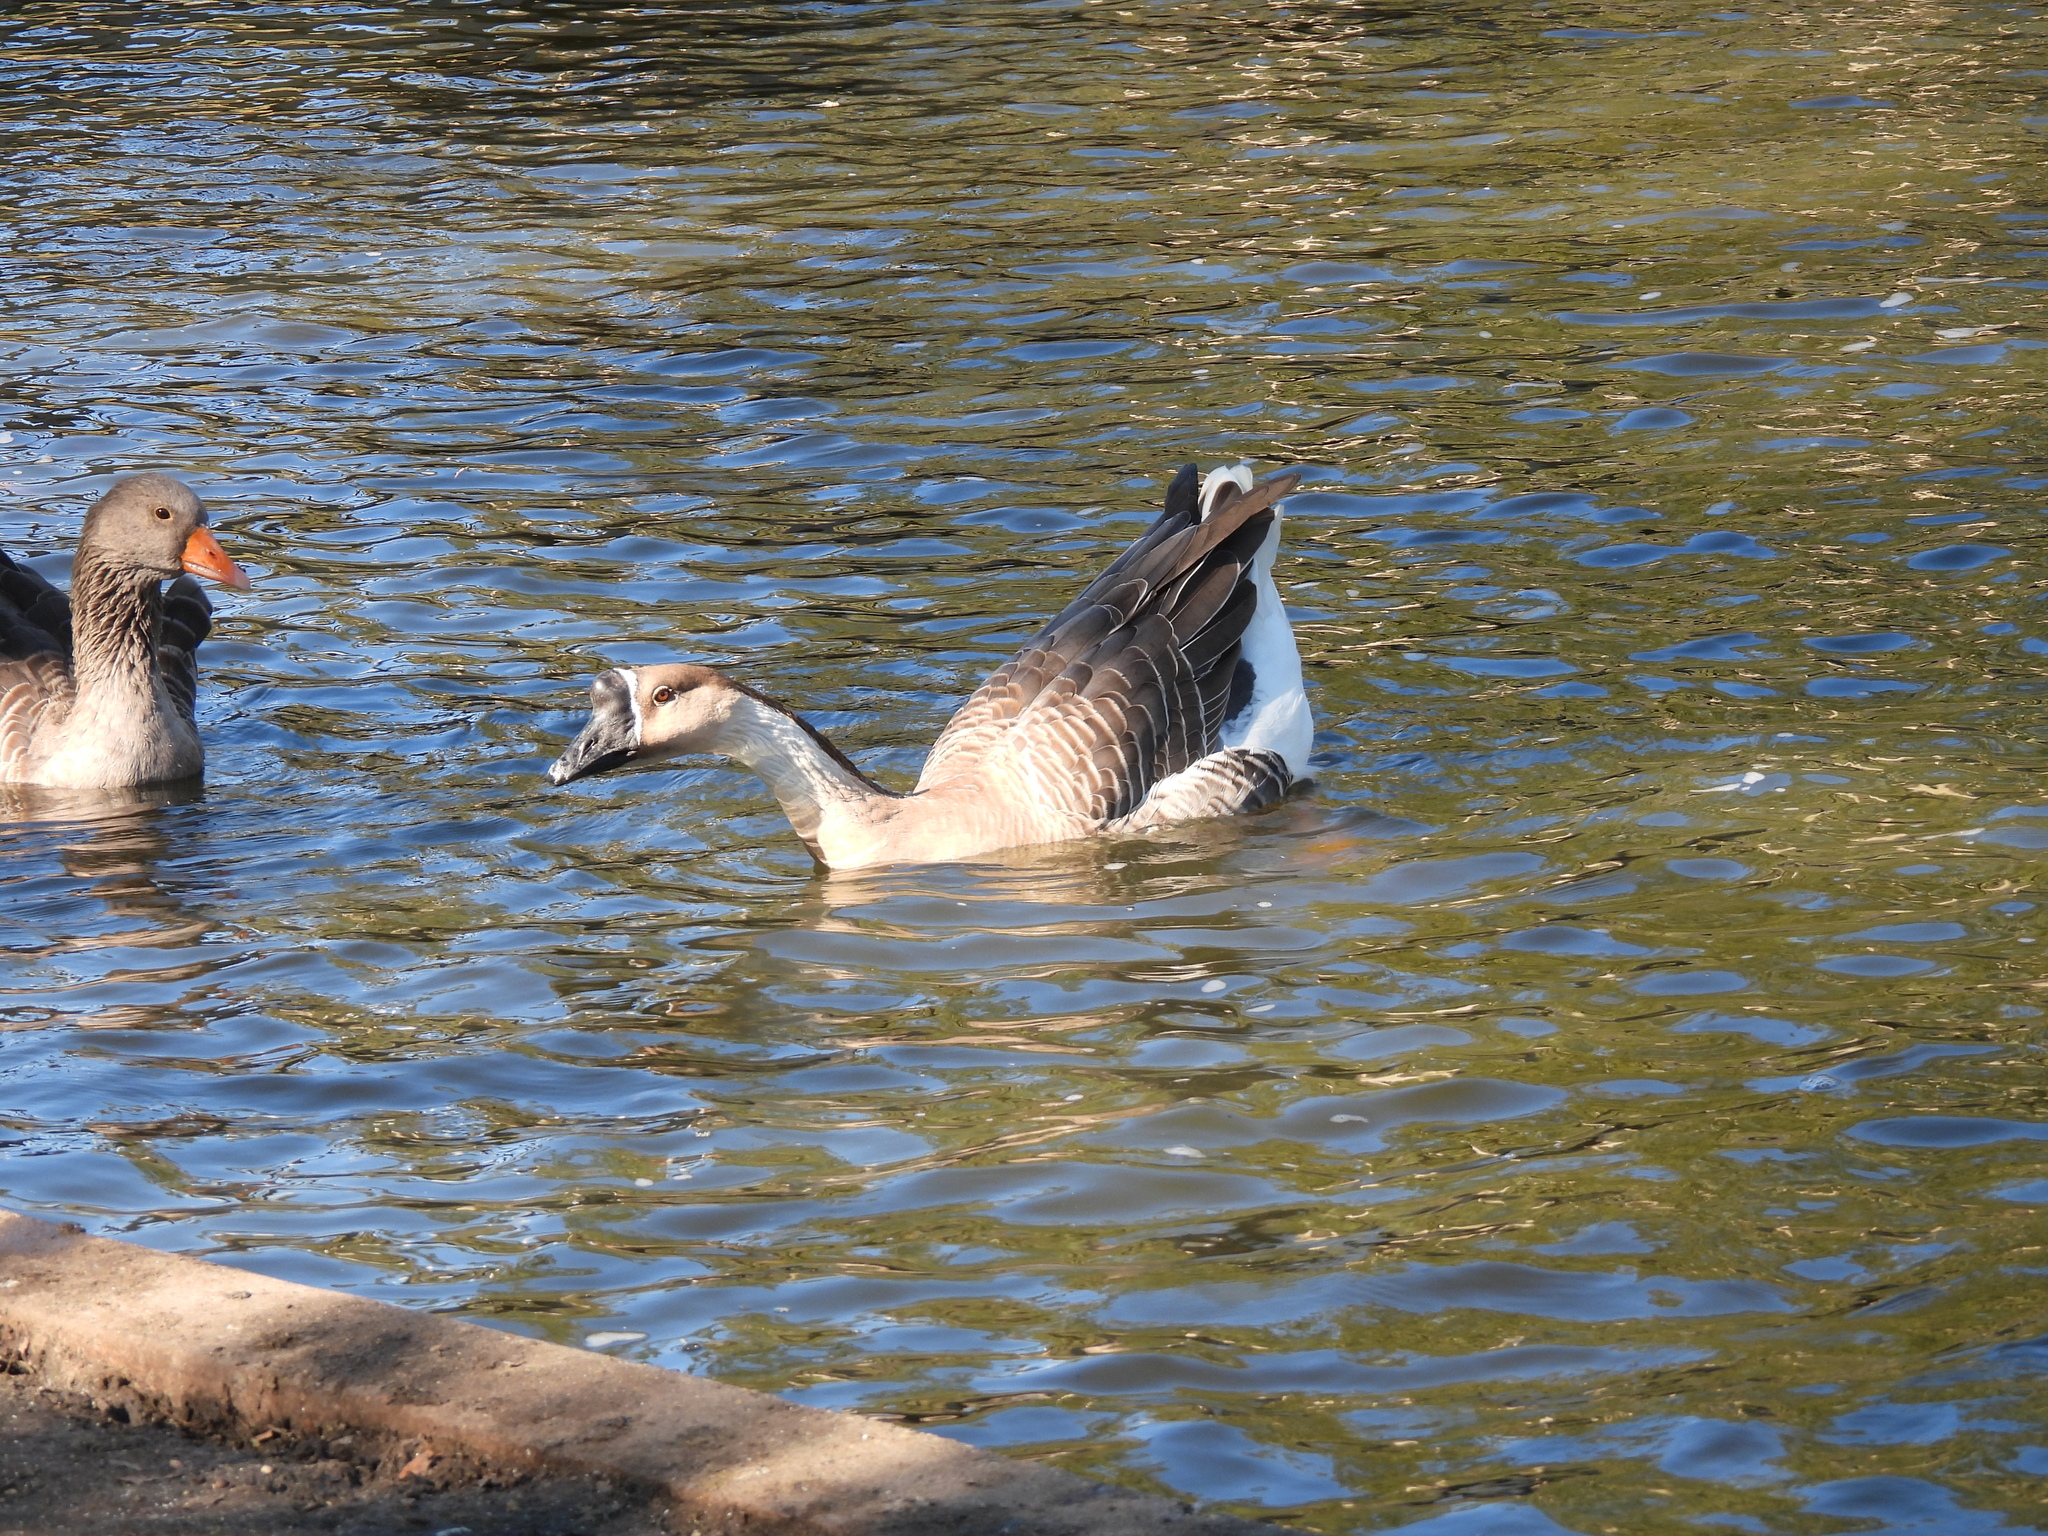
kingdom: Animalia
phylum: Chordata
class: Aves
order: Anseriformes
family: Anatidae
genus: Anser
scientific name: Anser anser
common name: Greylag goose
